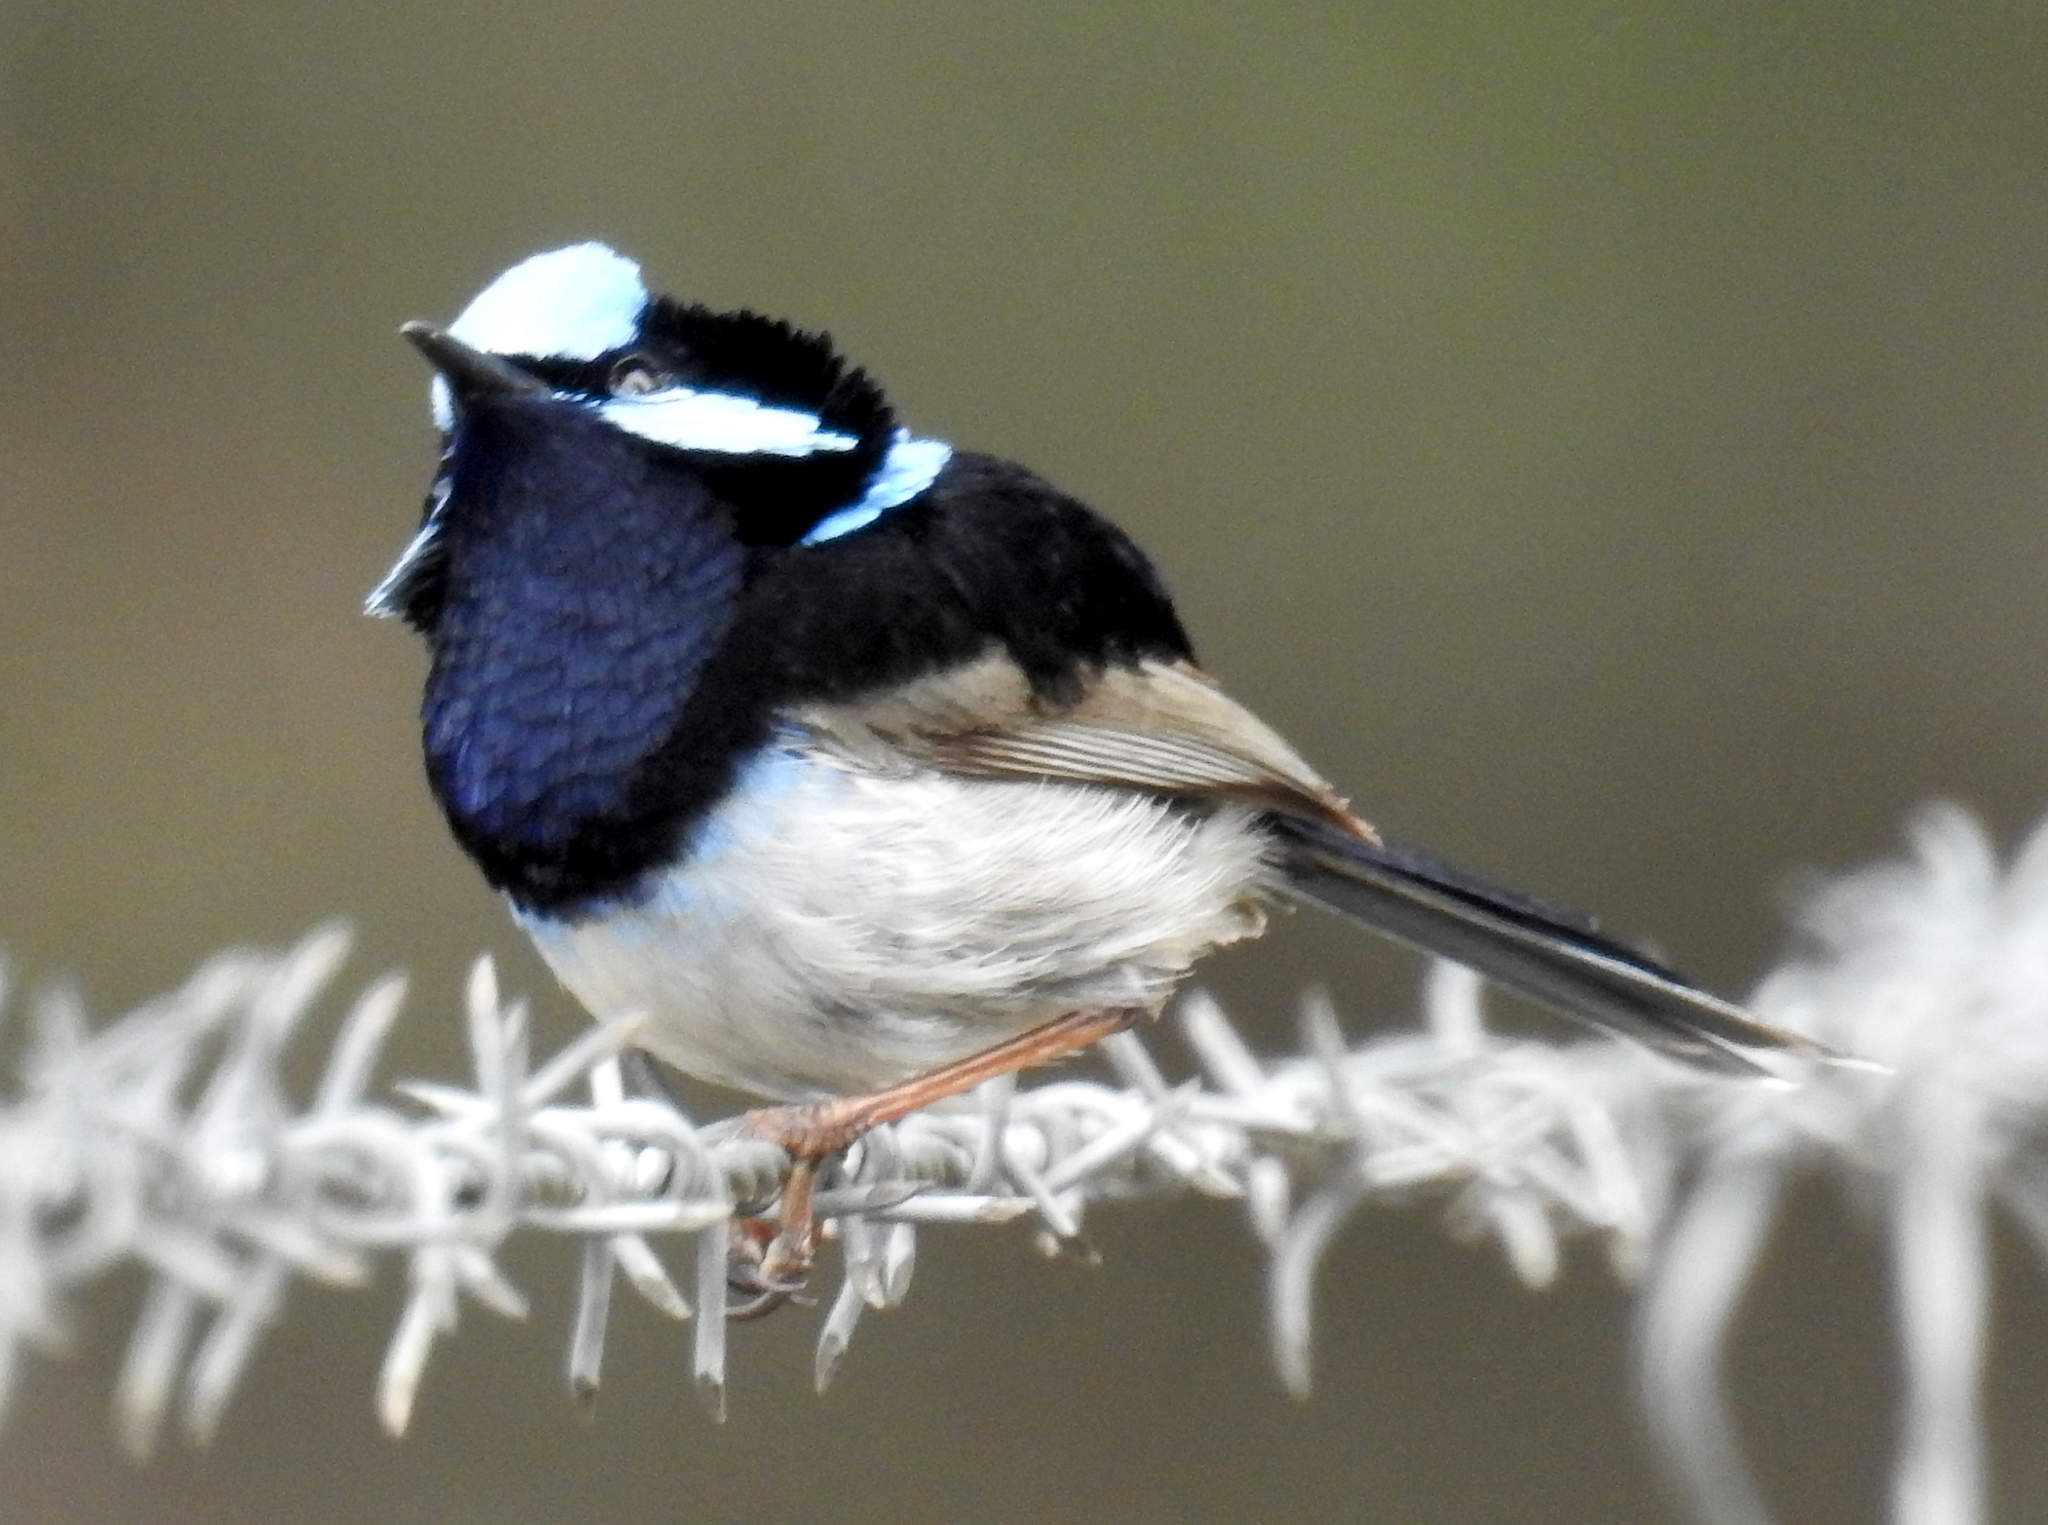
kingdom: Animalia
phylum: Chordata
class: Aves
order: Passeriformes
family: Maluridae
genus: Malurus
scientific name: Malurus cyaneus
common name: Superb fairywren
